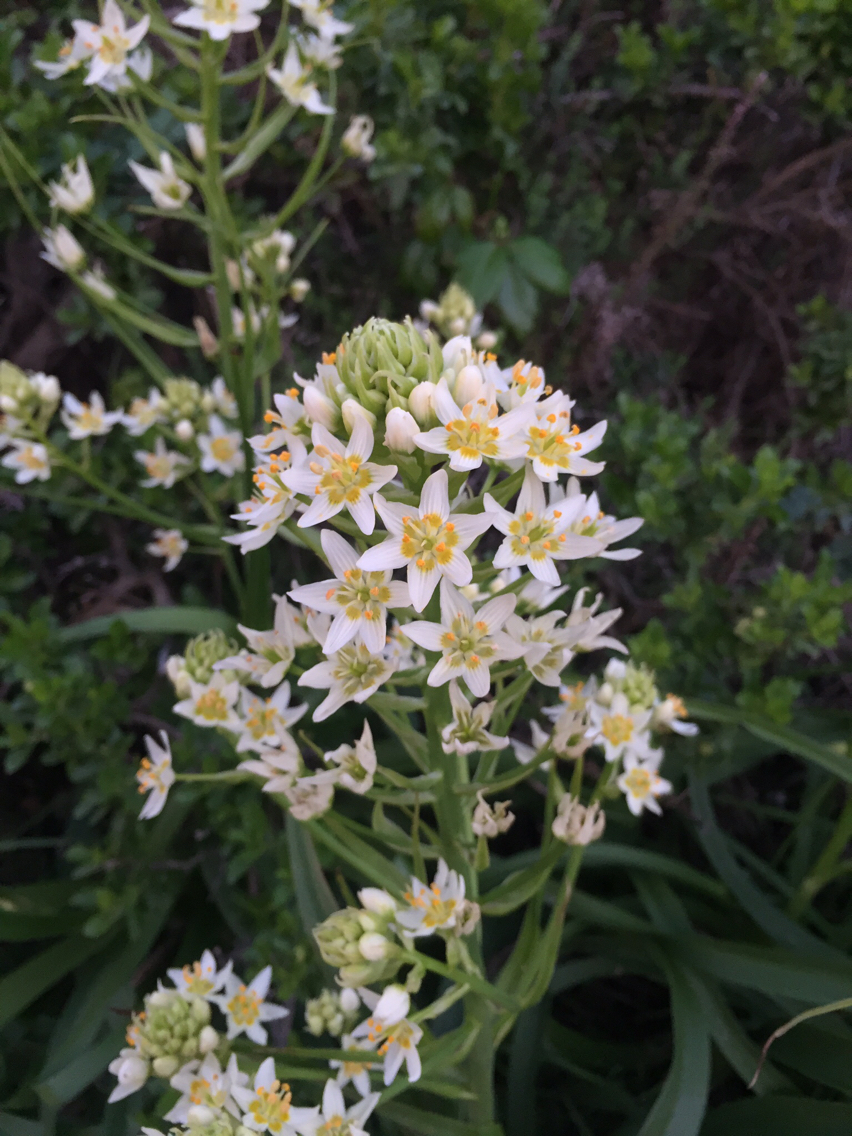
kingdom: Plantae
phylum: Tracheophyta
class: Liliopsida
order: Liliales
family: Melanthiaceae
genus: Toxicoscordion
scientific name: Toxicoscordion fremontii
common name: Fremont's death camas
